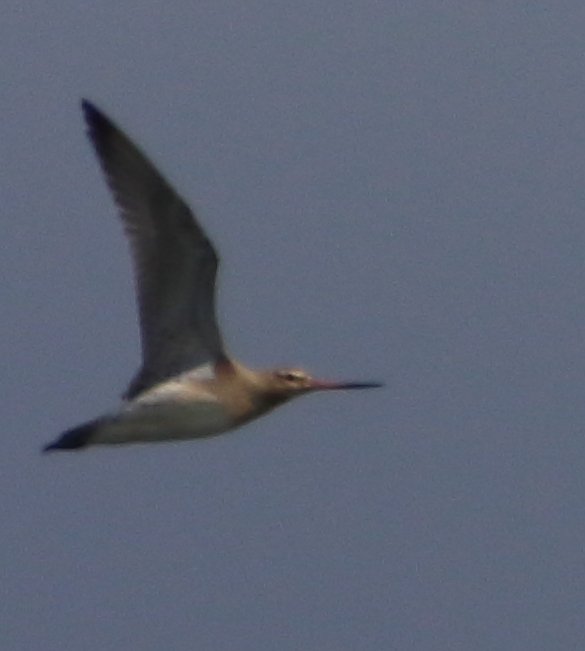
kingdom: Animalia
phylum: Chordata
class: Aves
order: Charadriiformes
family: Scolopacidae
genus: Limosa
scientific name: Limosa lapponica
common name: Bar-tailed godwit
